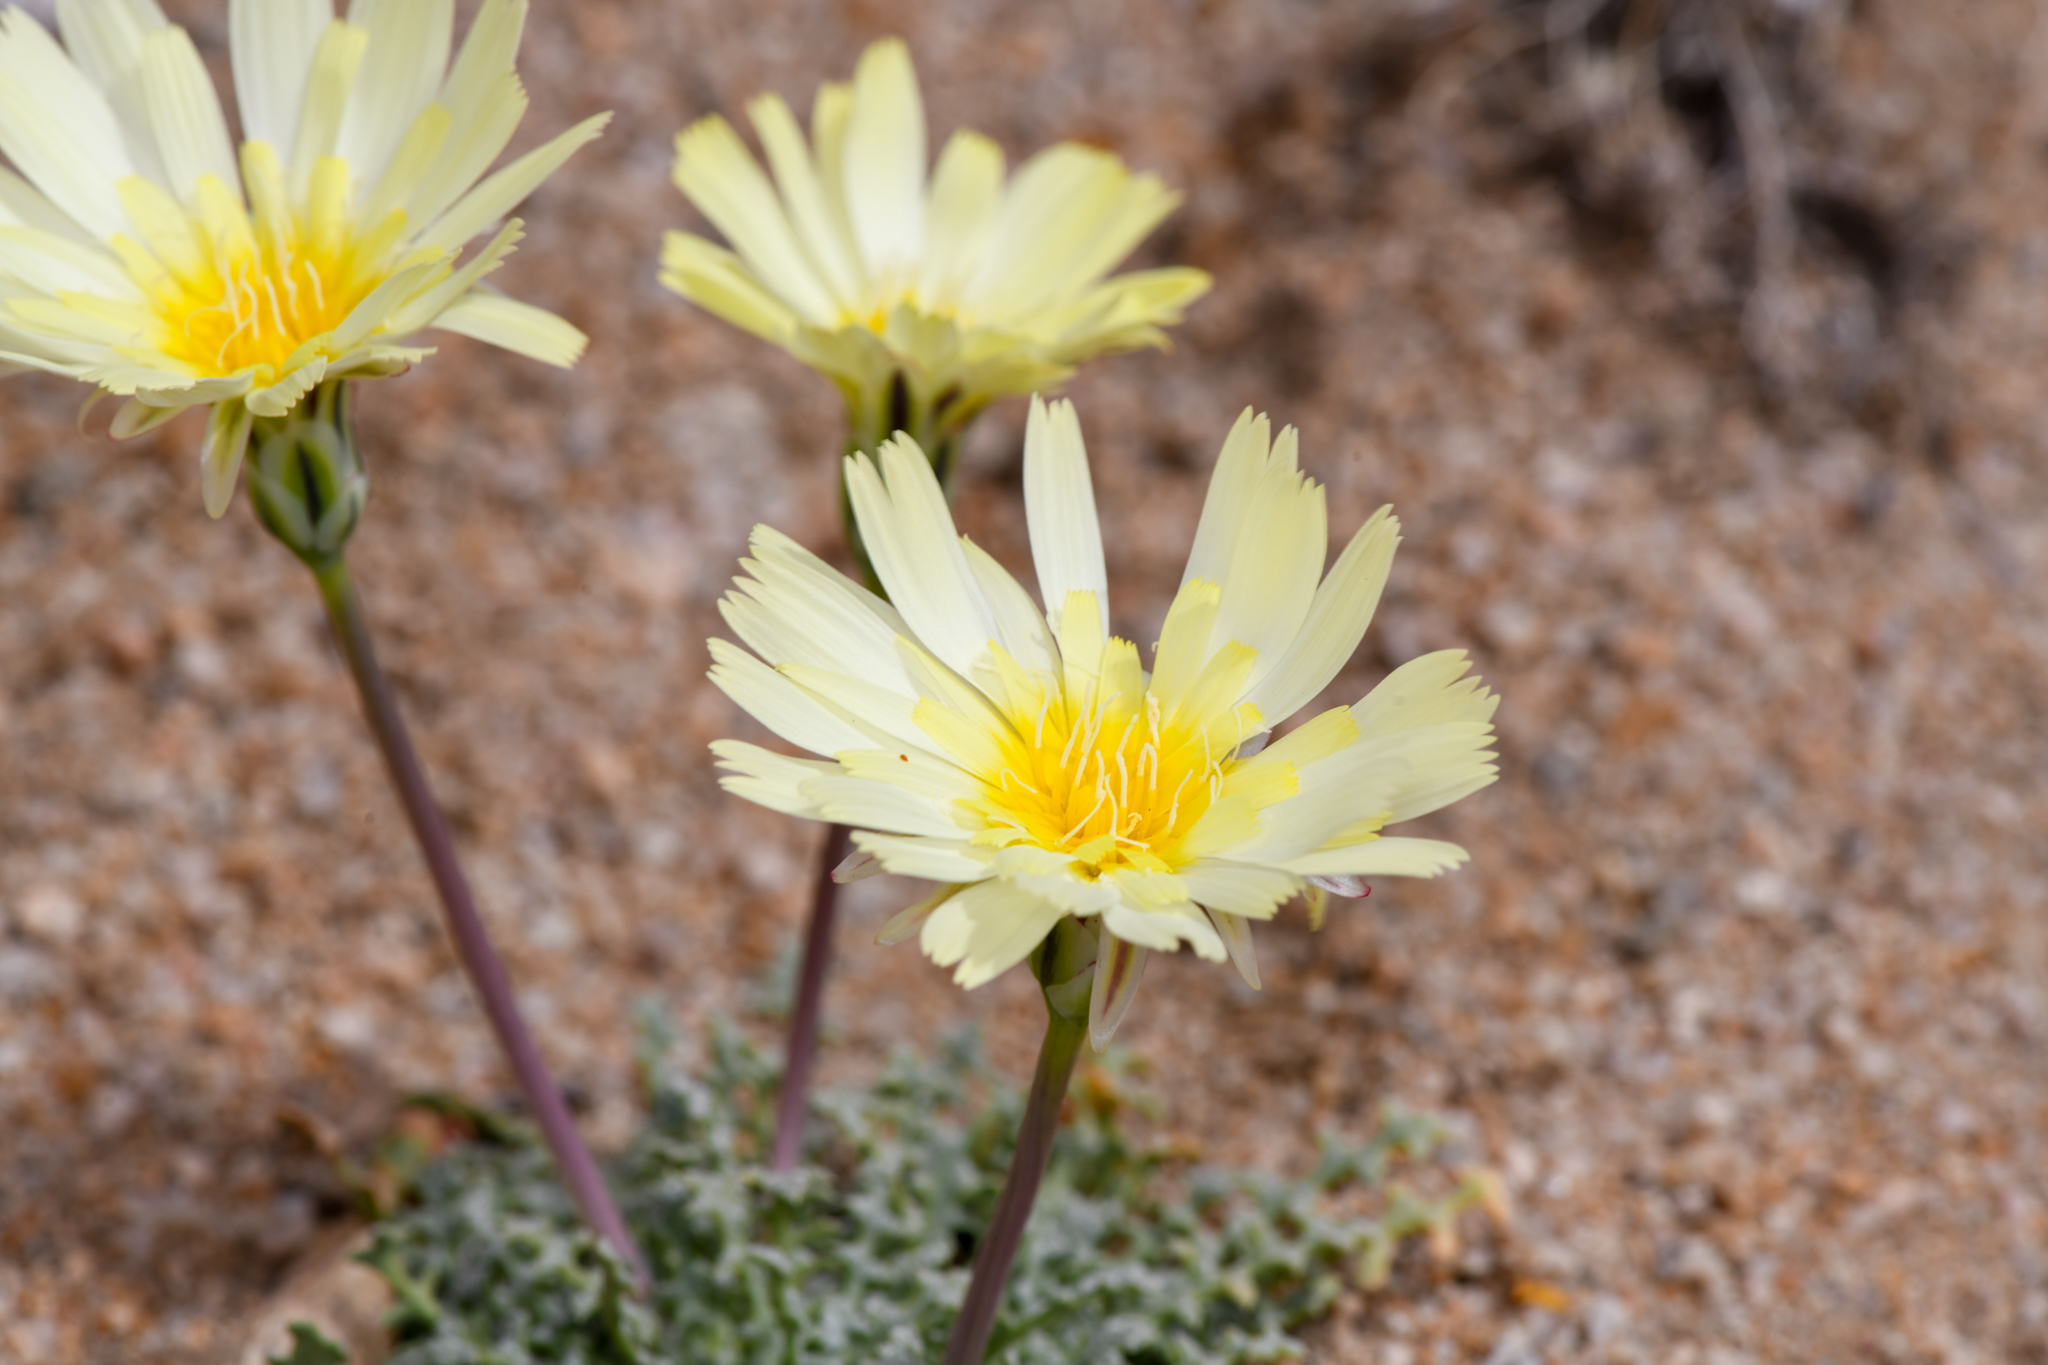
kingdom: Plantae
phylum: Tracheophyta
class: Magnoliopsida
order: Asterales
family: Asteraceae
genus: Anisocoma
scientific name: Anisocoma acaulis
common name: Scalebud
